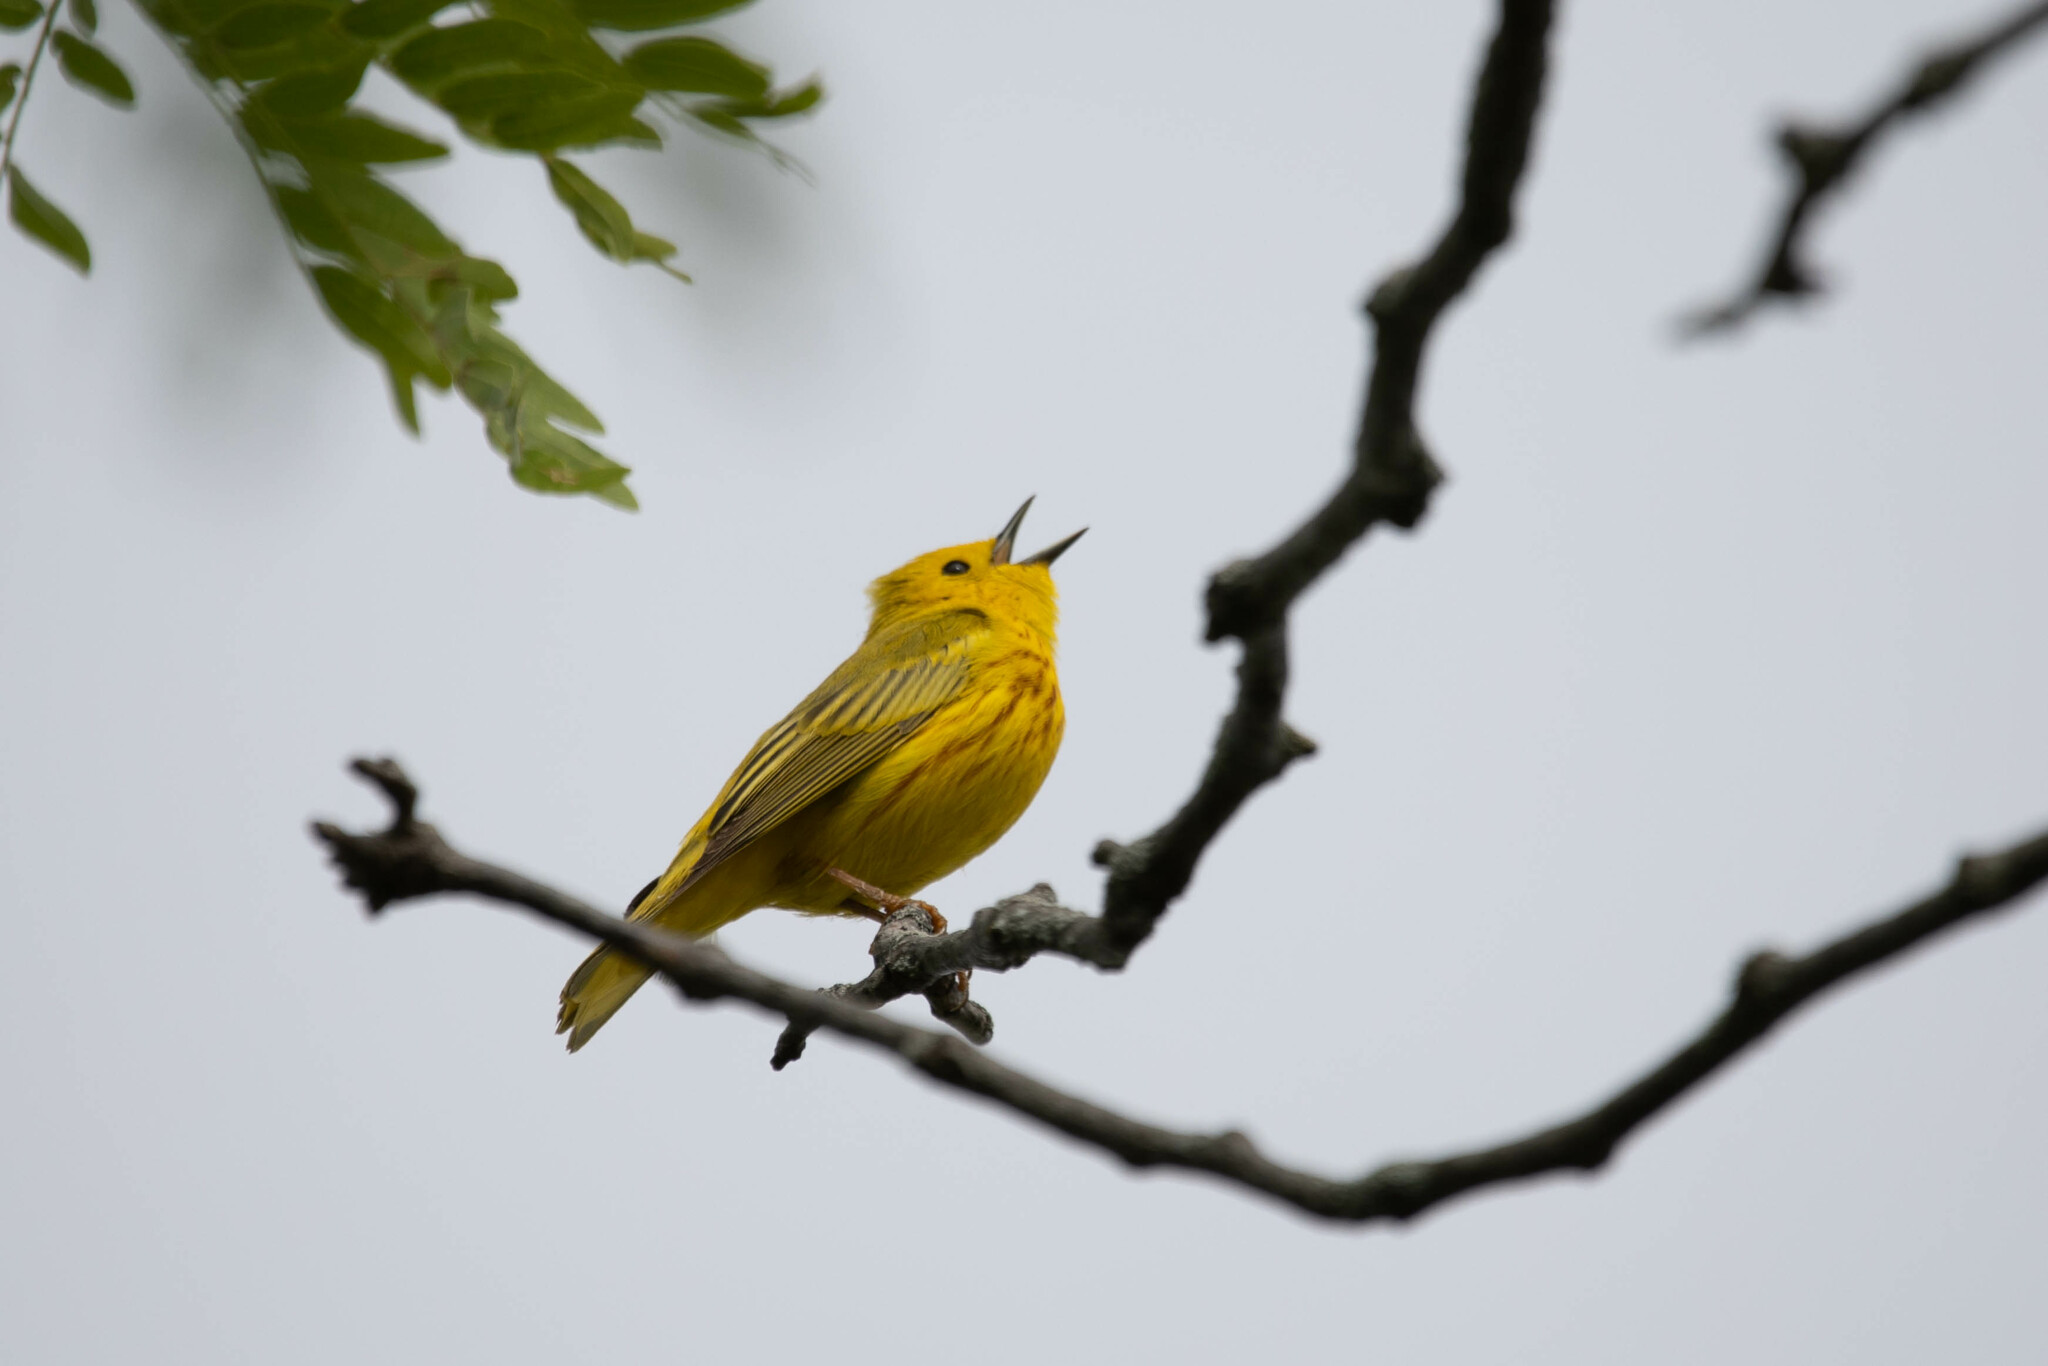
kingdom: Animalia
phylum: Chordata
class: Aves
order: Passeriformes
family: Parulidae
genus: Setophaga
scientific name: Setophaga petechia
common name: Yellow warbler
